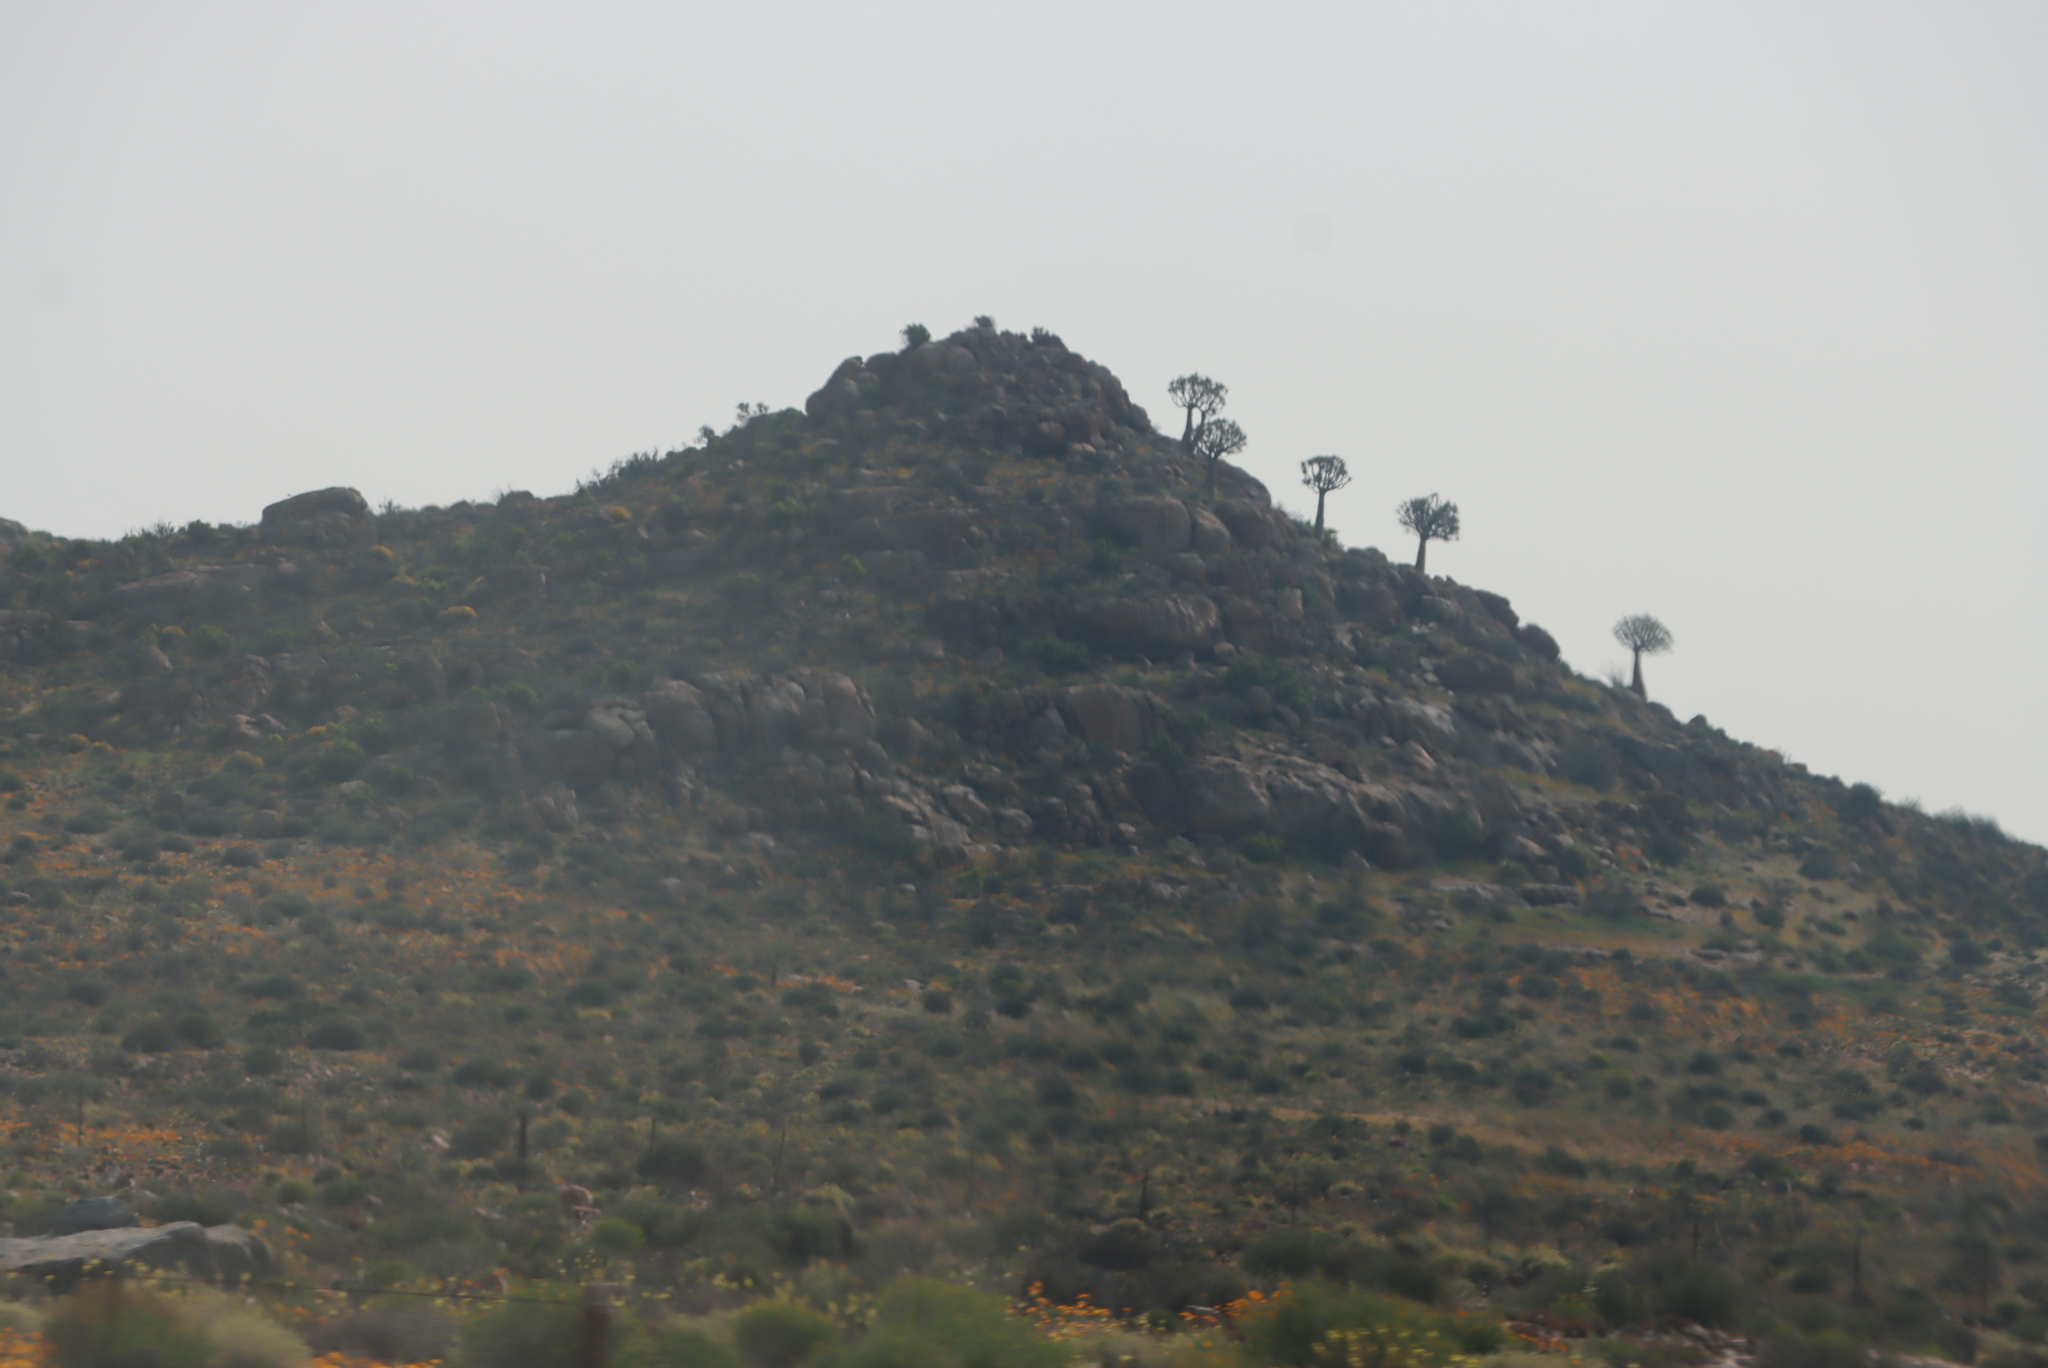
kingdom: Plantae
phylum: Tracheophyta
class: Liliopsida
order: Asparagales
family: Asphodelaceae
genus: Aloidendron
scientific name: Aloidendron dichotomum
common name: Quiver tree
